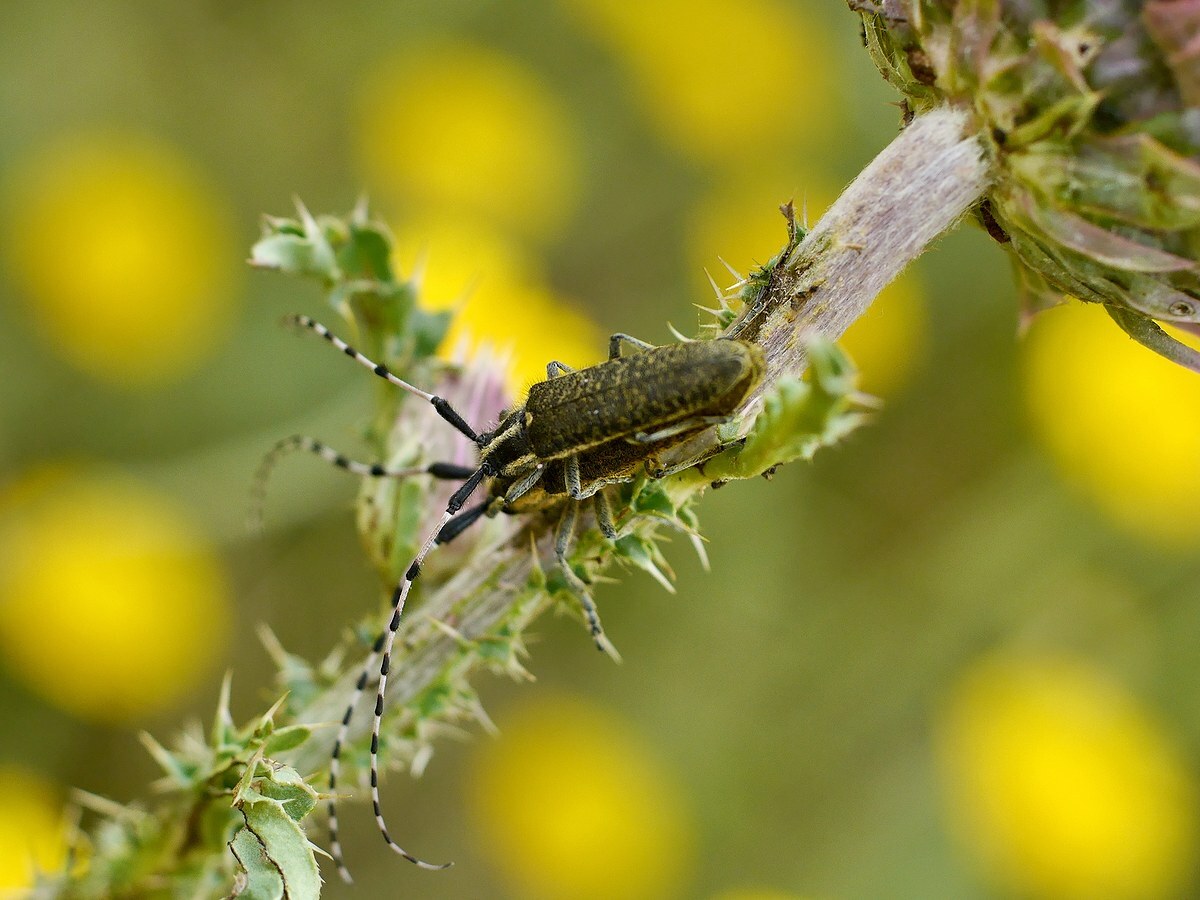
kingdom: Animalia
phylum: Arthropoda
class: Insecta
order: Coleoptera
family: Cerambycidae
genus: Agapanthia
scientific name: Agapanthia dahlii
